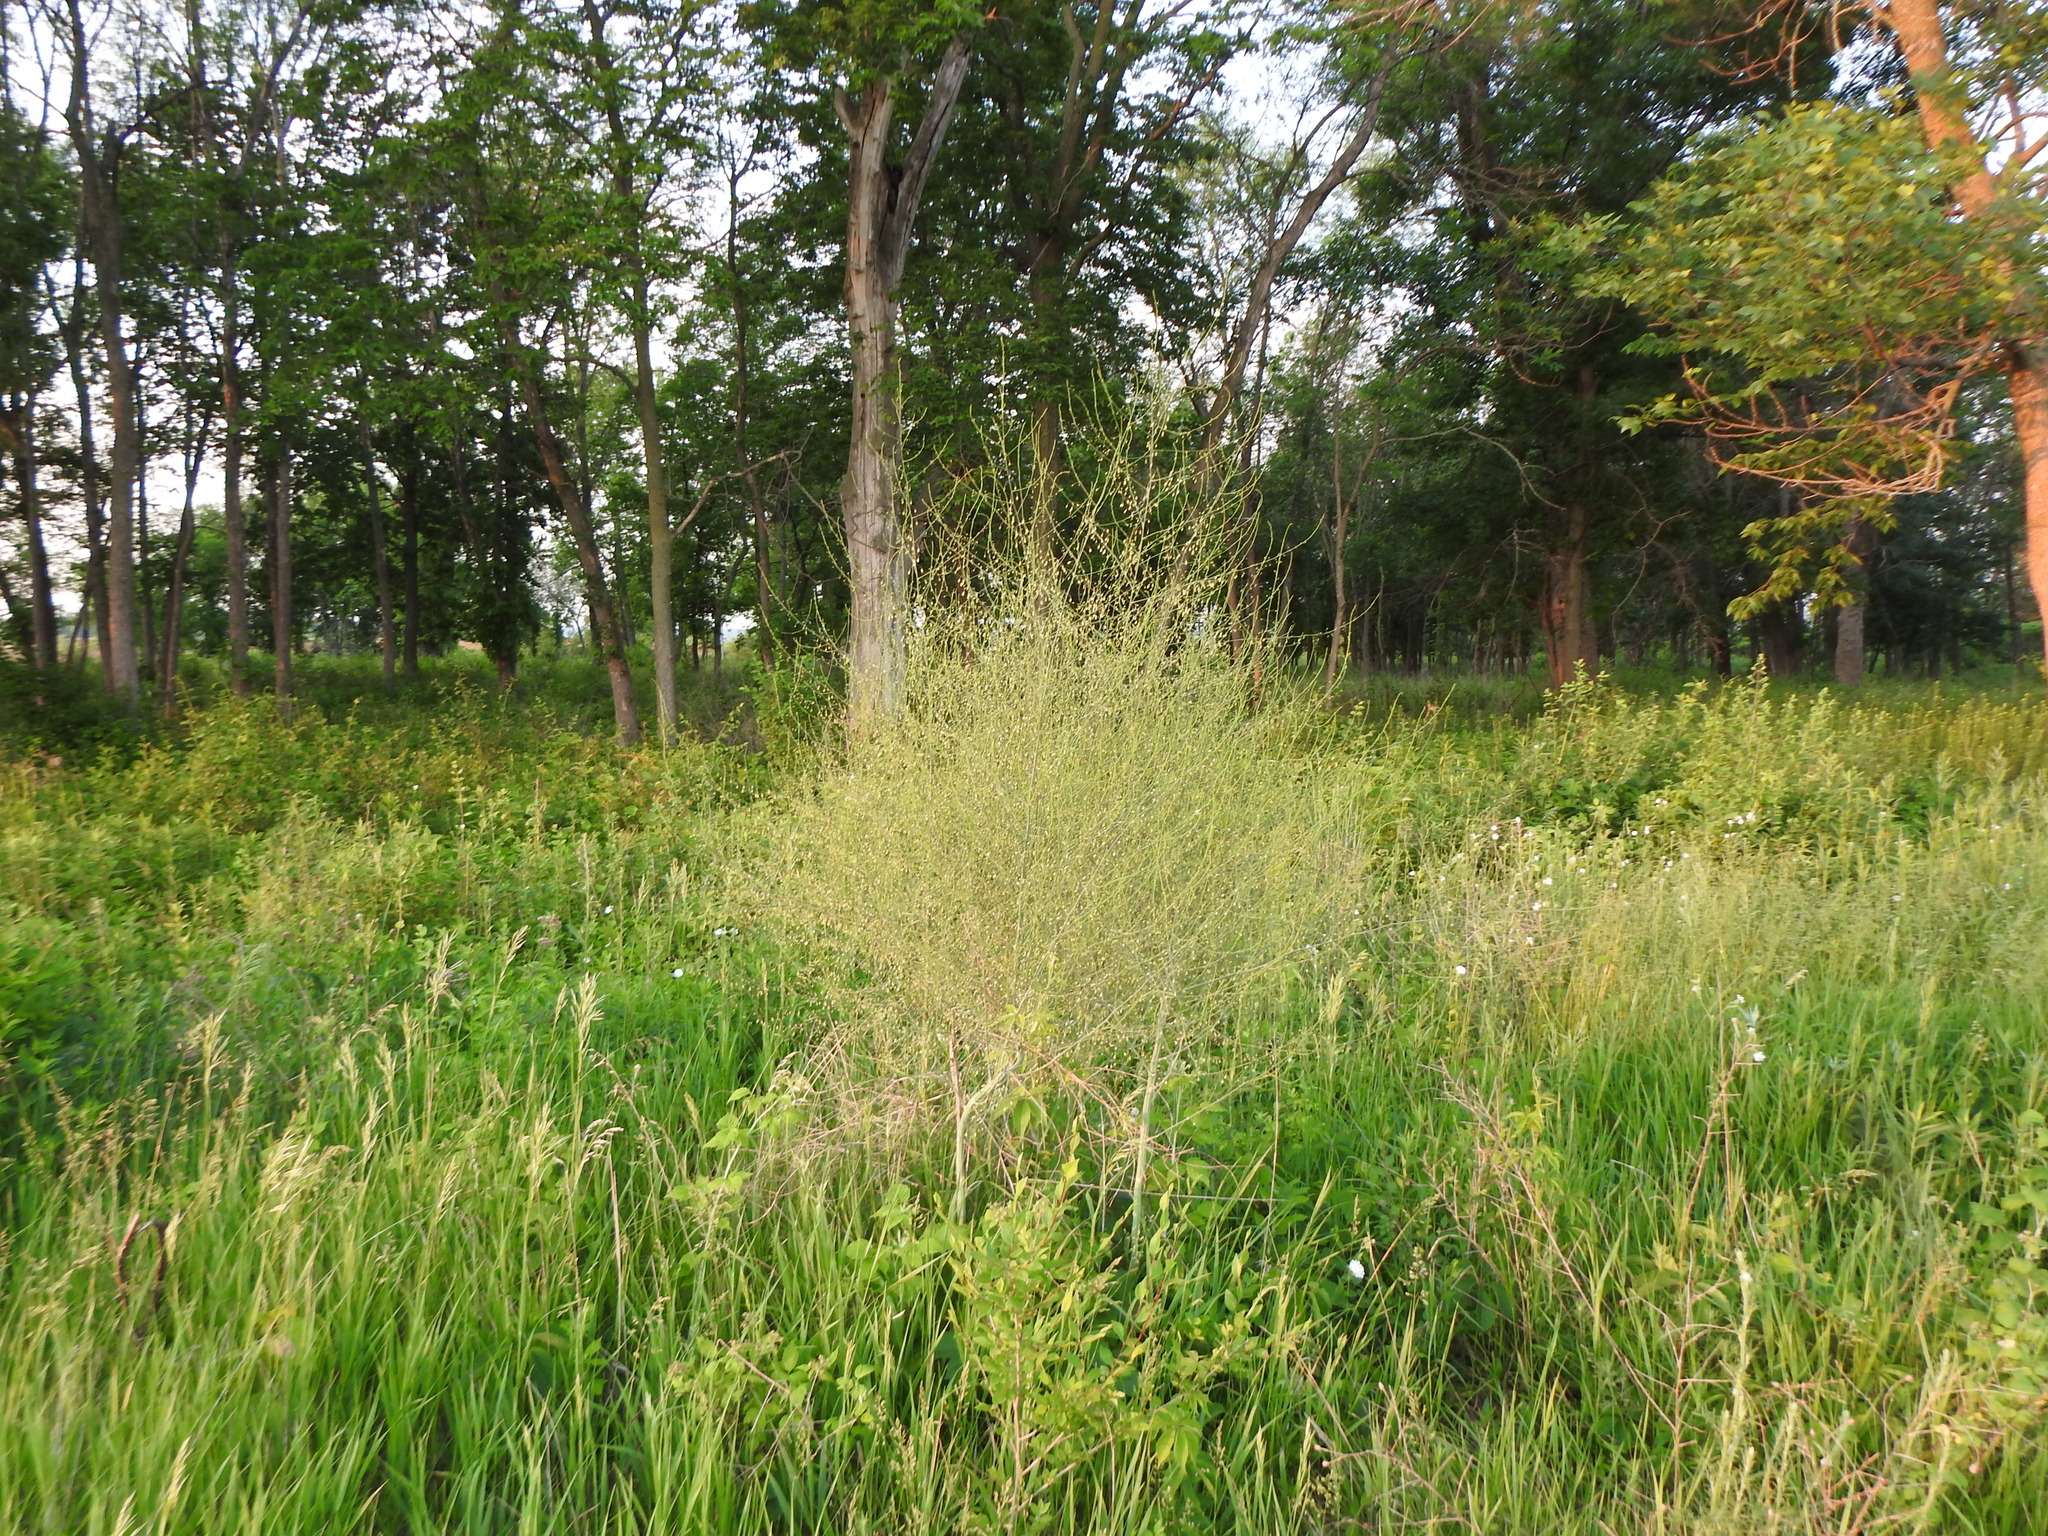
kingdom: Plantae
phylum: Tracheophyta
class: Liliopsida
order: Asparagales
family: Asparagaceae
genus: Asparagus
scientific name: Asparagus officinalis
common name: Garden asparagus
